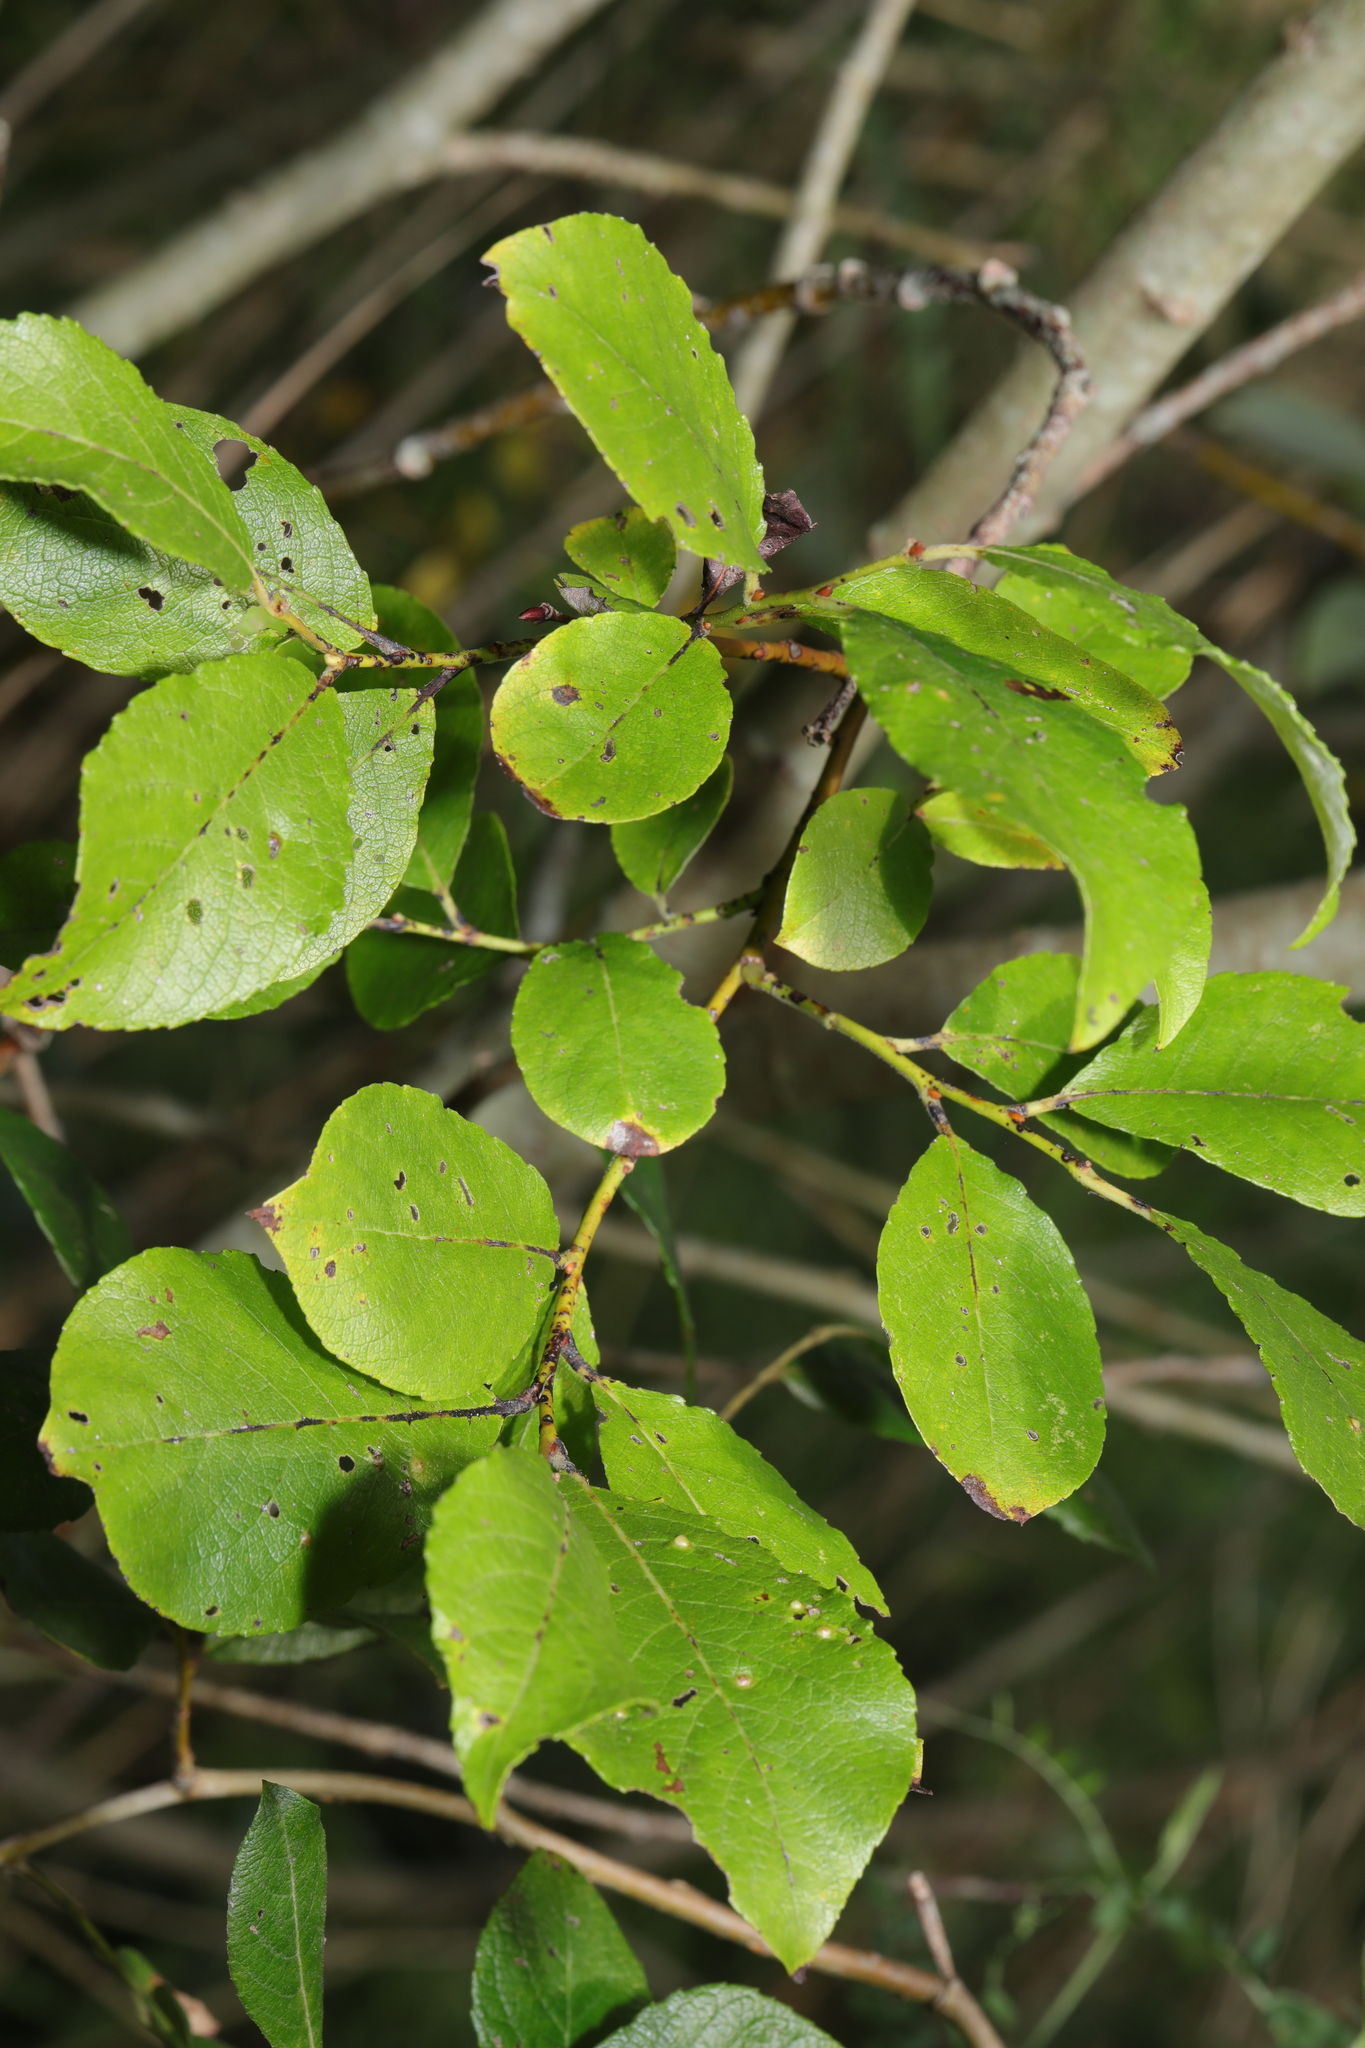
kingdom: Plantae
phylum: Tracheophyta
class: Magnoliopsida
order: Malpighiales
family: Salicaceae
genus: Salix
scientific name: Salix caprea
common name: Goat willow
